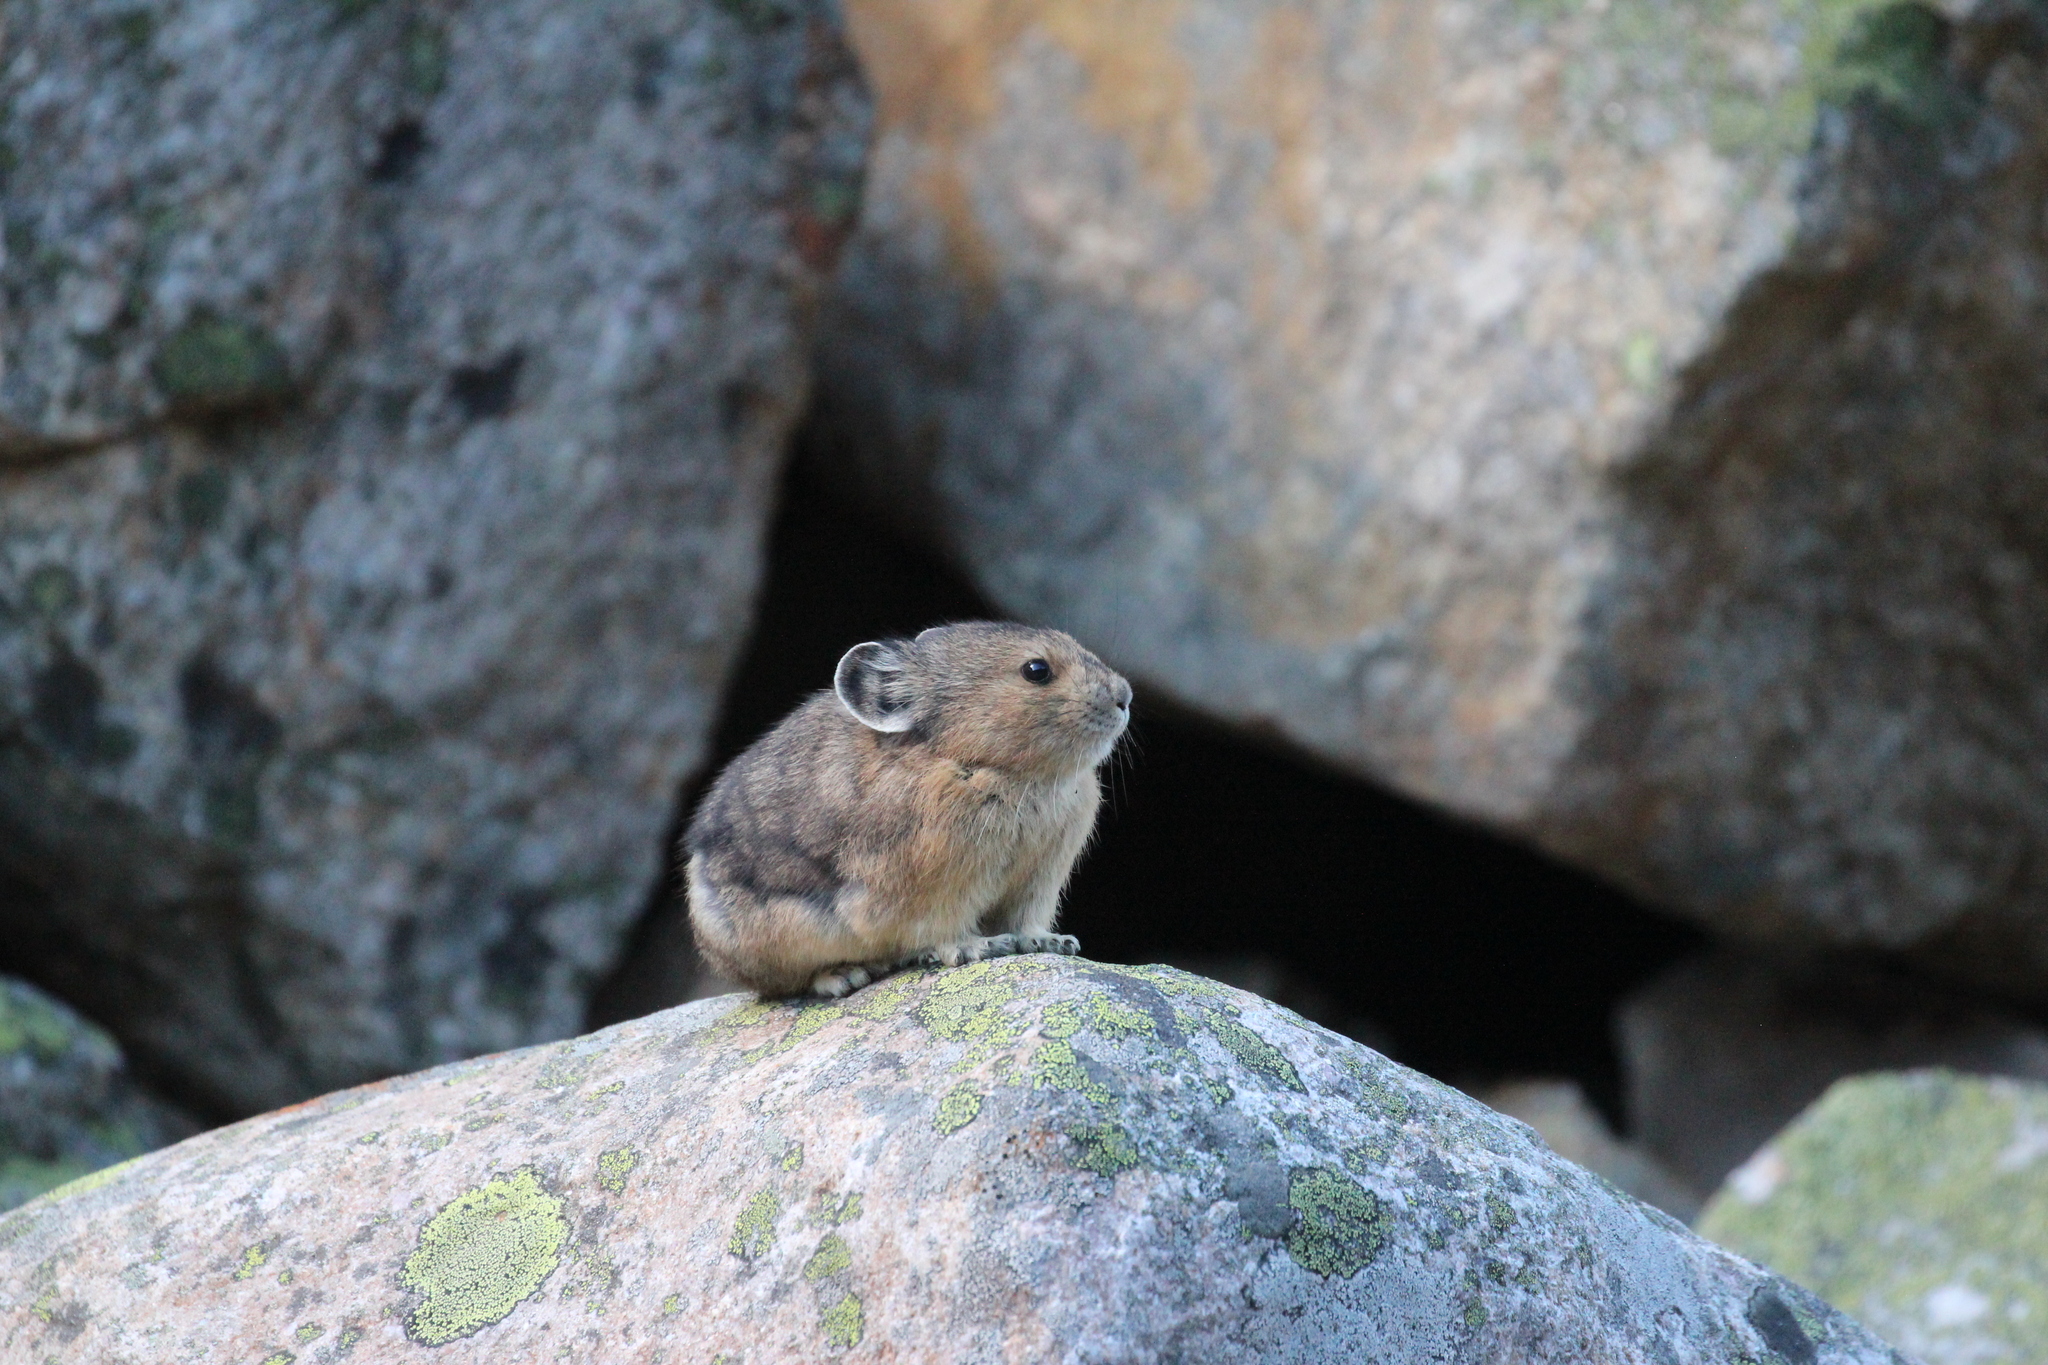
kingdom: Animalia
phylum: Chordata
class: Mammalia
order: Lagomorpha
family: Ochotonidae
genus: Ochotona
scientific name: Ochotona princeps
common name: American pika
